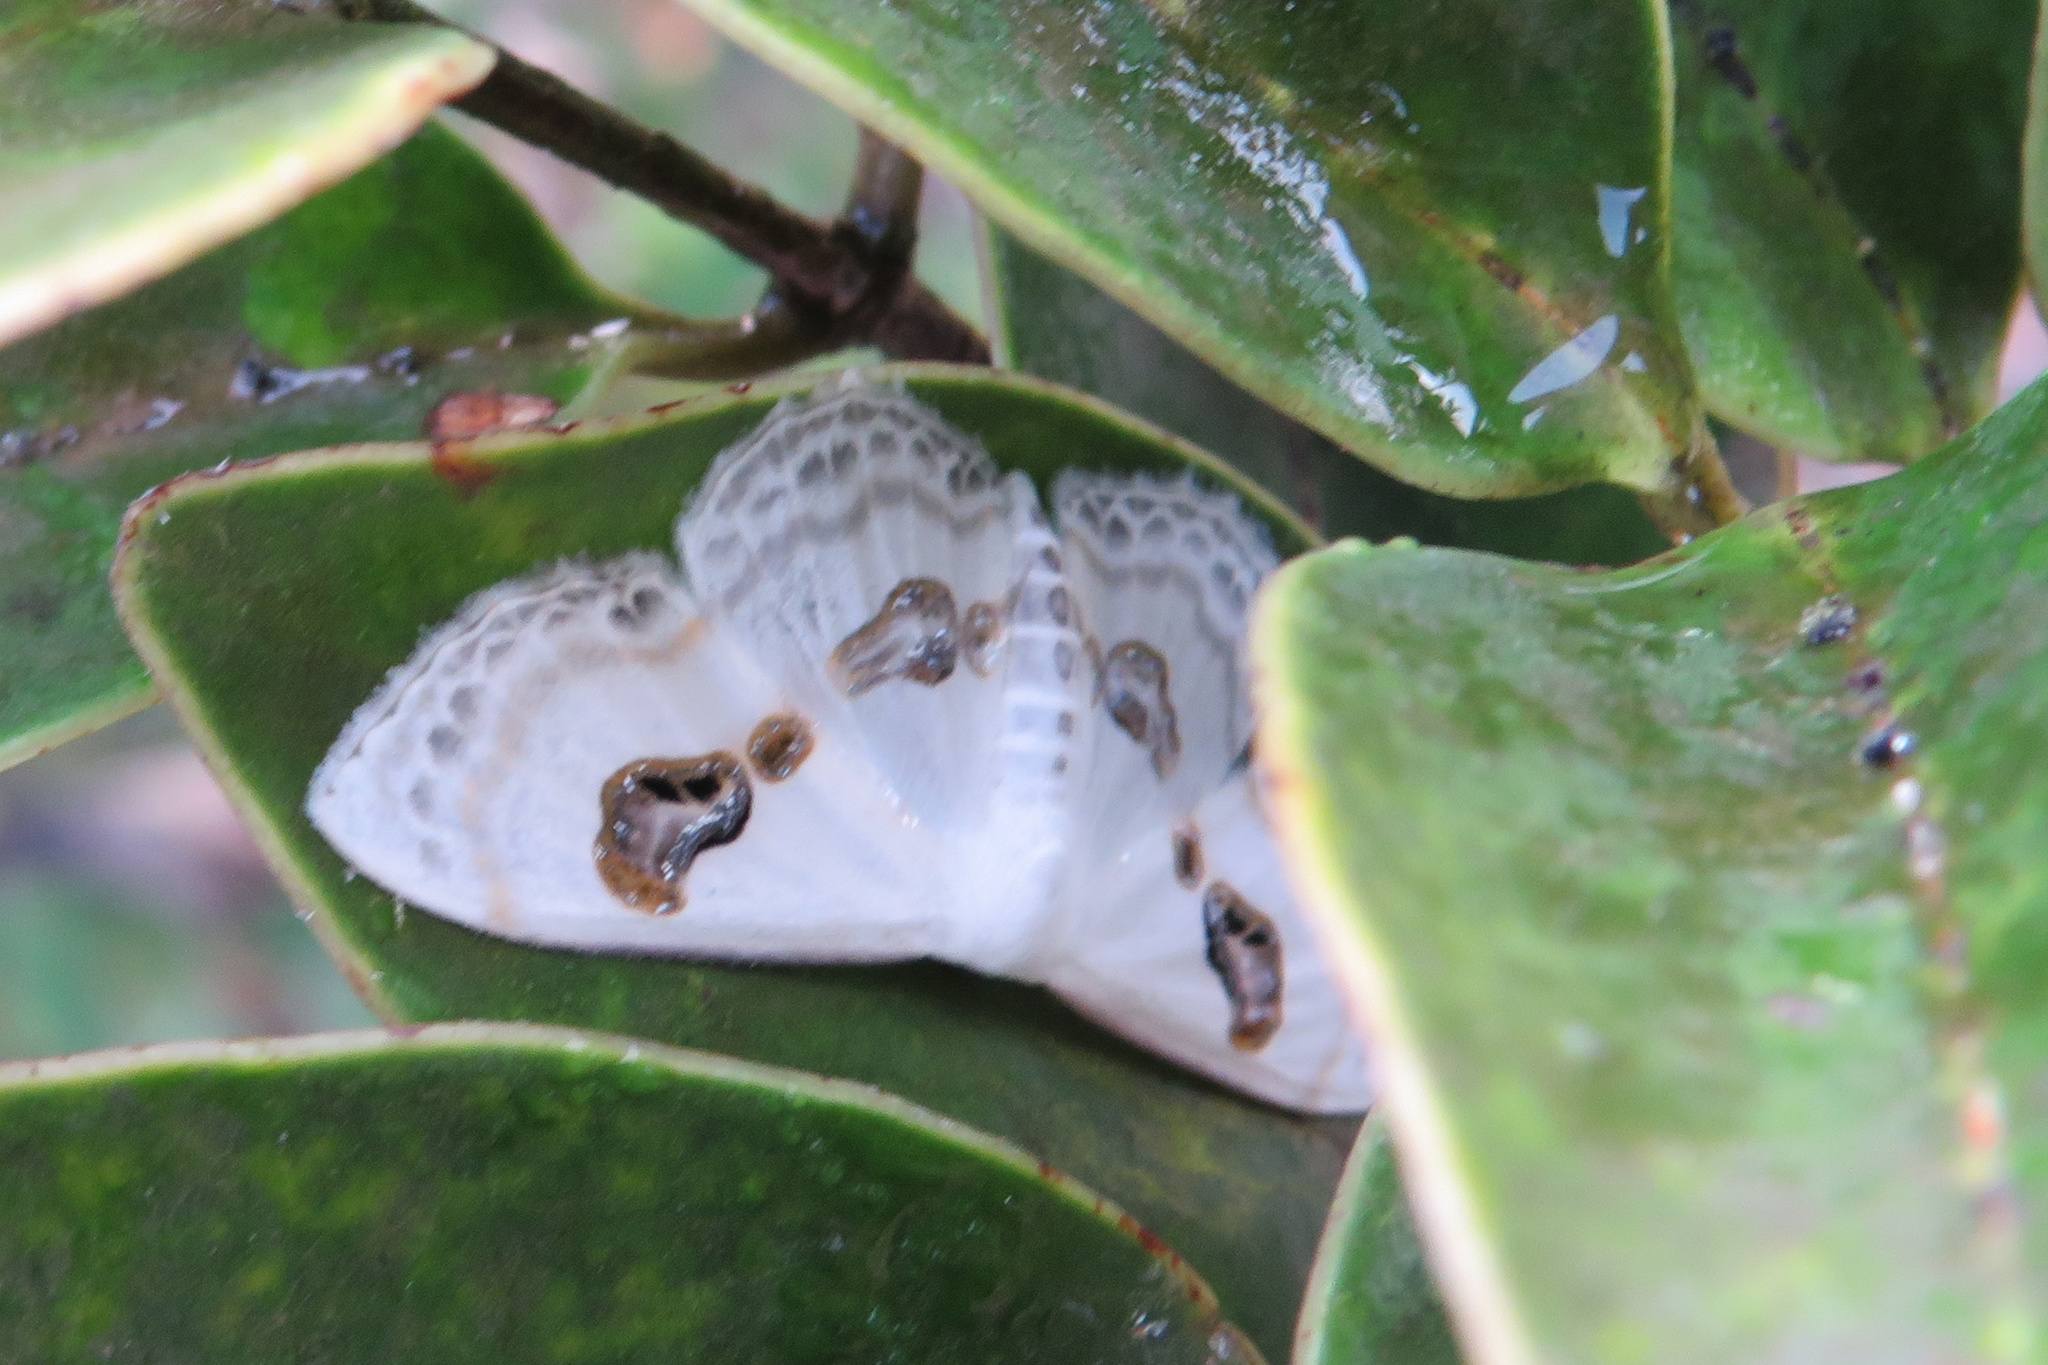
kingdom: Animalia
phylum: Arthropoda
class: Insecta
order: Lepidoptera
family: Geometridae
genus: Problepsis
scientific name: Problepsis deliaria
